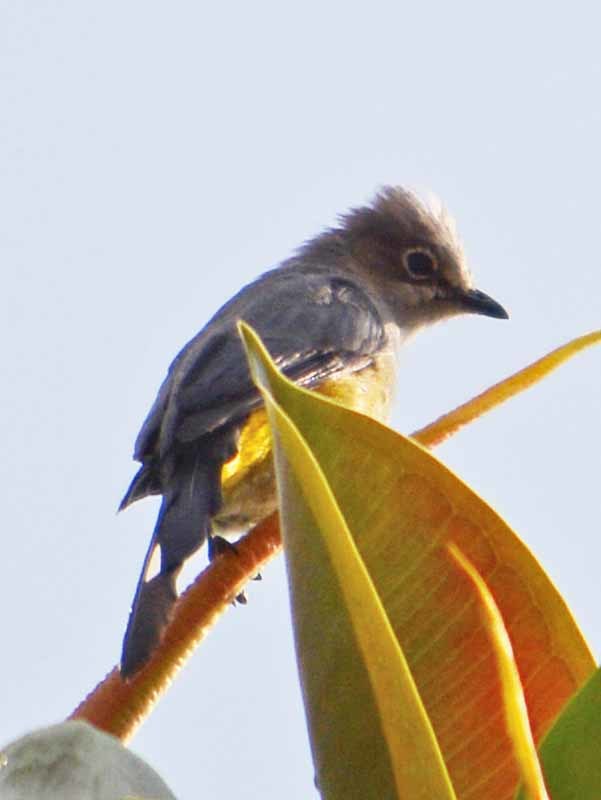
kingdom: Animalia
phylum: Chordata
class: Aves
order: Passeriformes
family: Ptilogonatidae
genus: Ptilogonys
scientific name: Ptilogonys cinereus
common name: Gray silky-flycatcher
